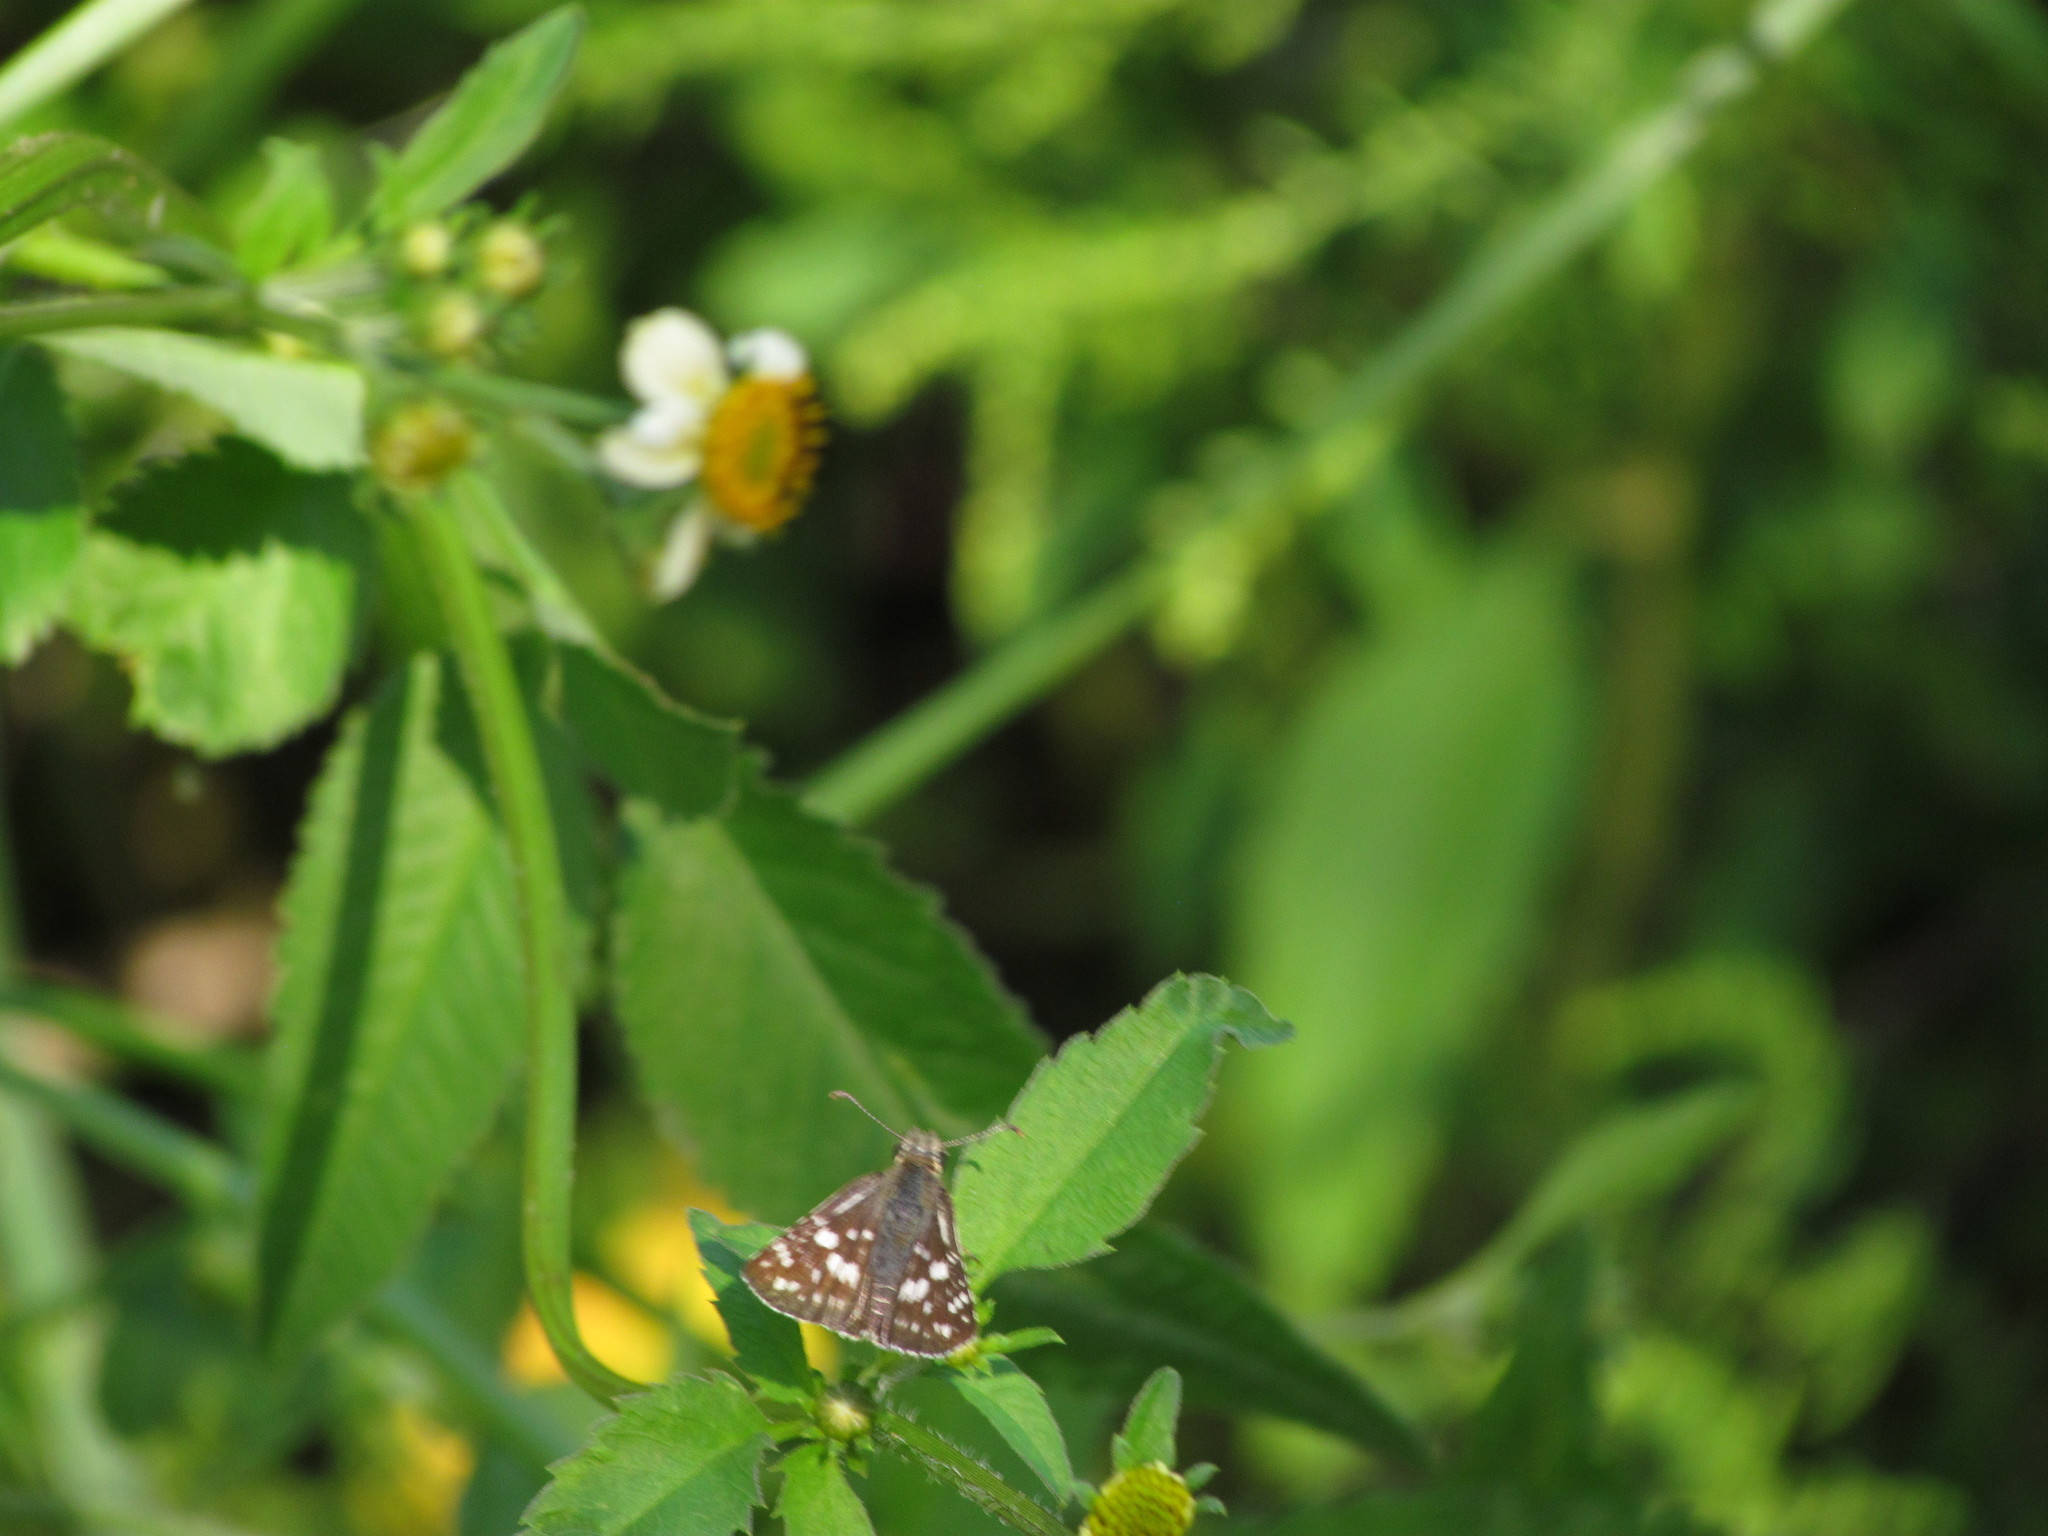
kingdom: Animalia
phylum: Arthropoda
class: Insecta
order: Lepidoptera
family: Hesperiidae
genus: Burnsius
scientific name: Burnsius orcynoides
